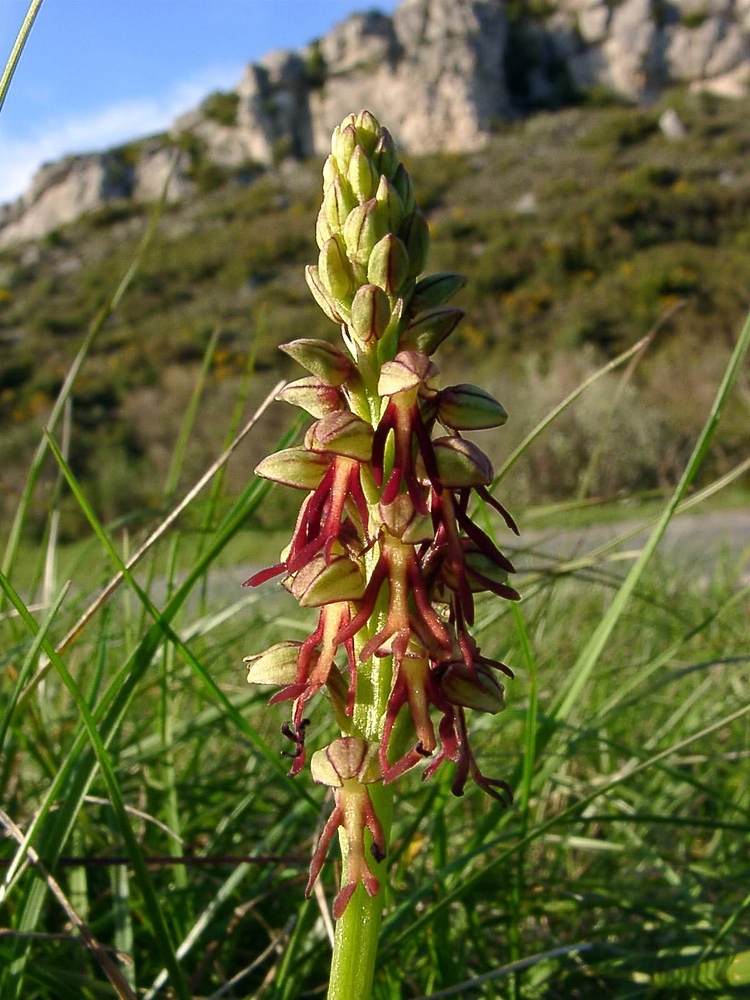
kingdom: Plantae
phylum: Tracheophyta
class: Liliopsida
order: Asparagales
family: Orchidaceae
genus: Orchis
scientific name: Orchis anthropophora
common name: Man orchid
